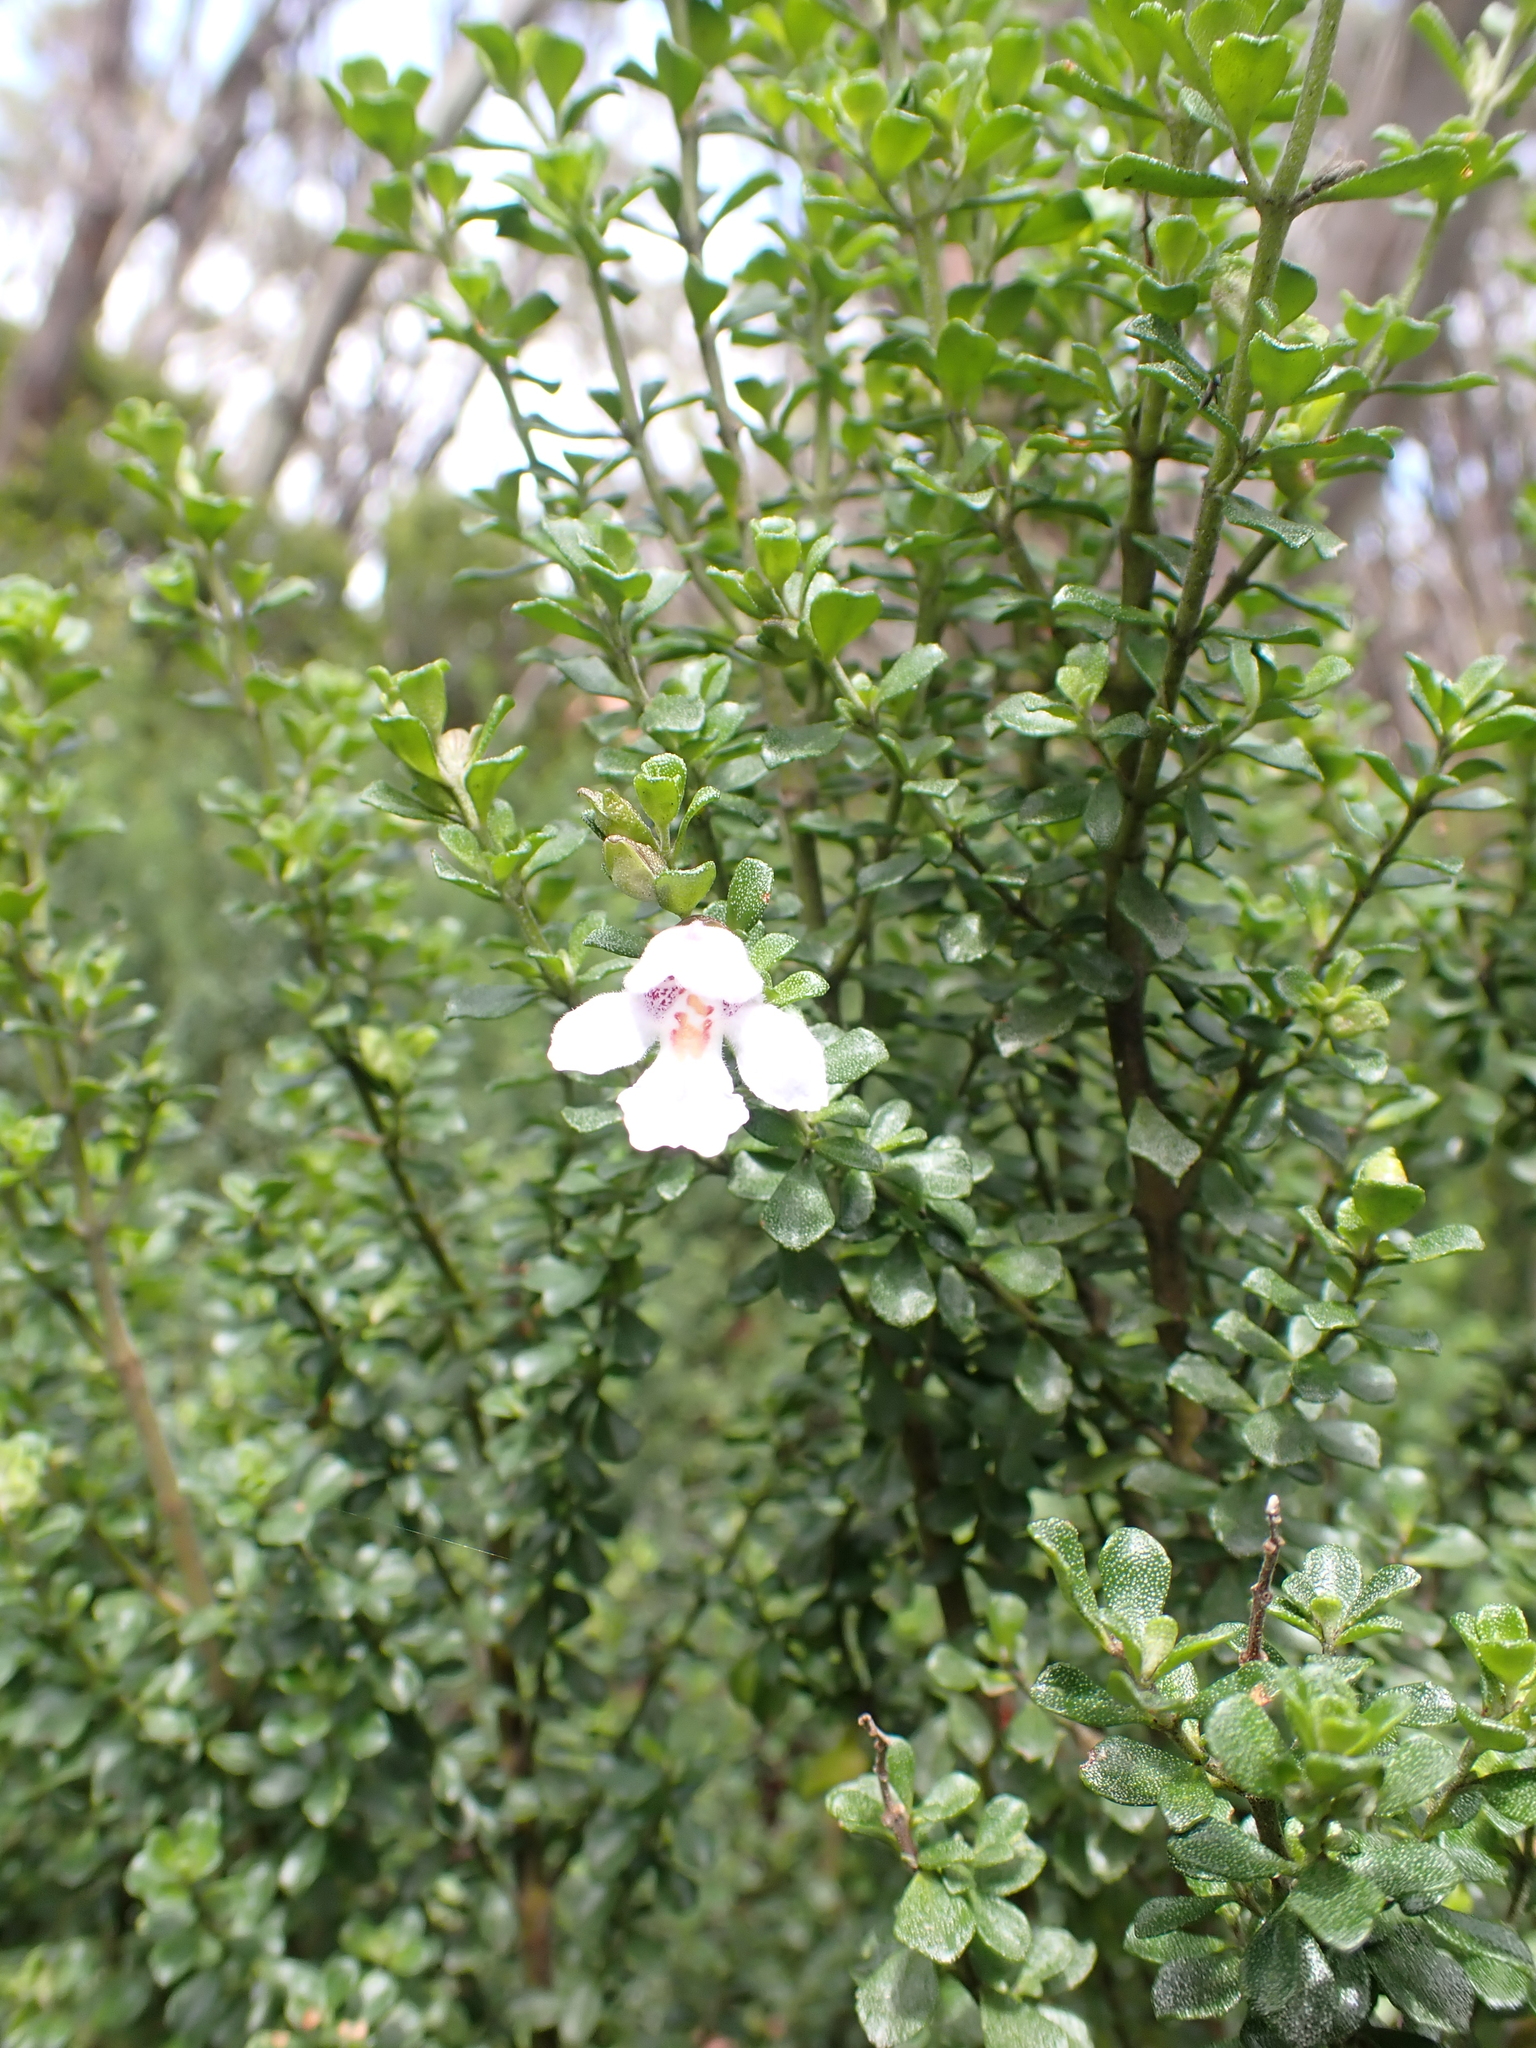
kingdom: Plantae
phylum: Tracheophyta
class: Magnoliopsida
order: Lamiales
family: Lamiaceae
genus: Prostanthera
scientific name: Prostanthera cuneata
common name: Alpine mintbush
